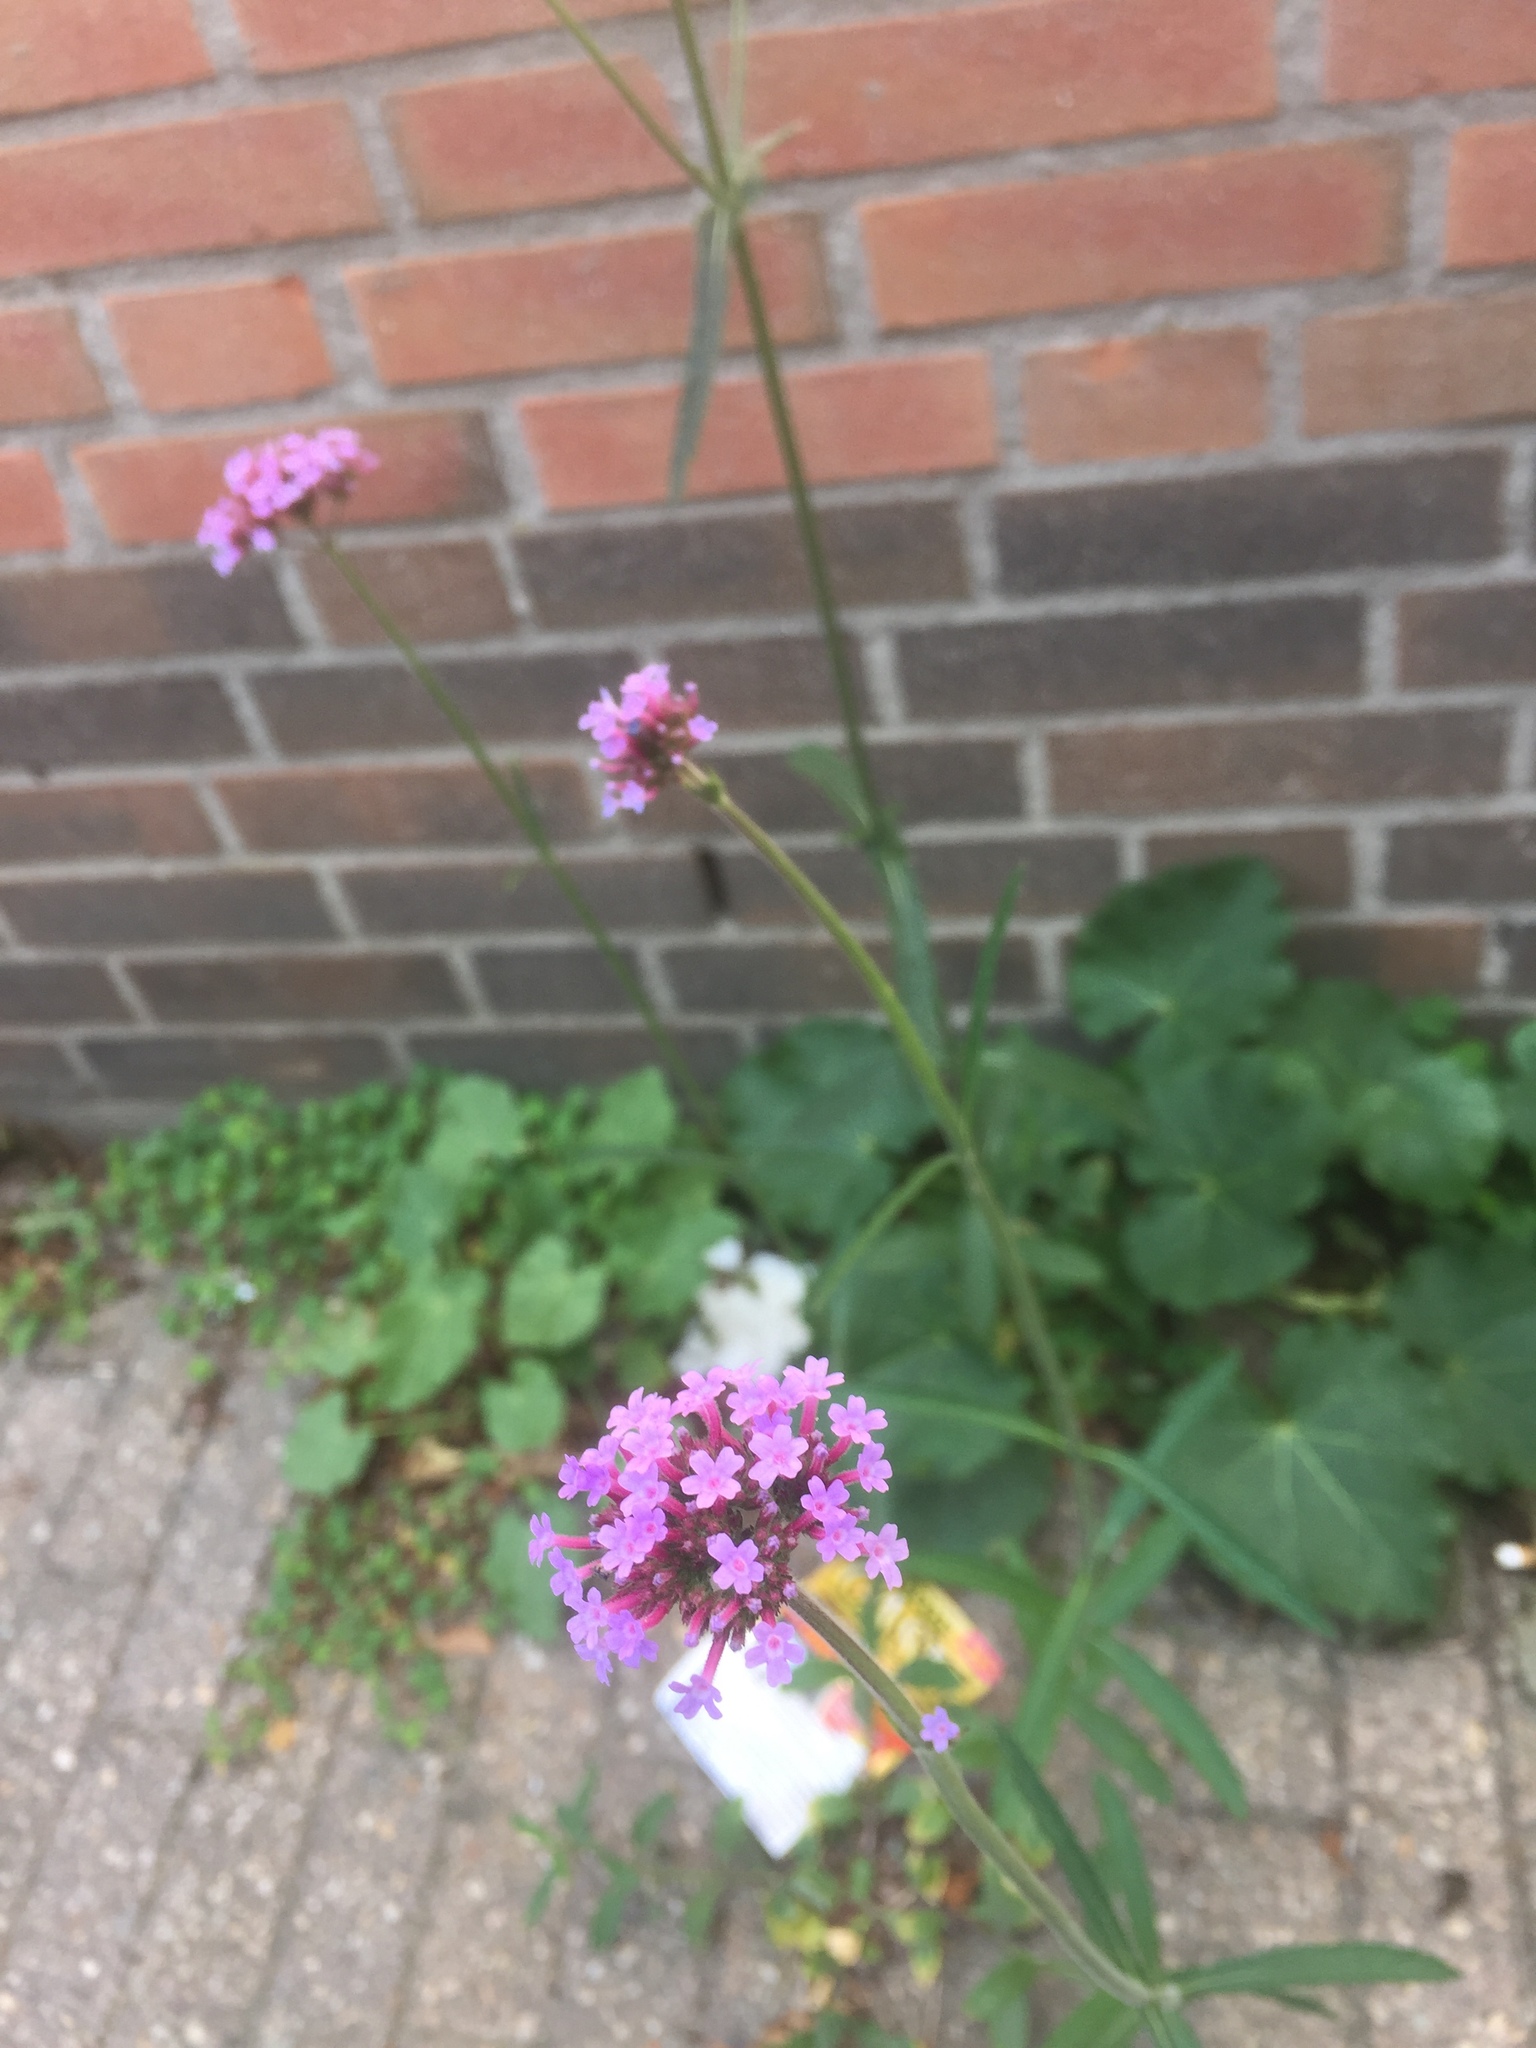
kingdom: Plantae
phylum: Tracheophyta
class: Magnoliopsida
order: Lamiales
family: Verbenaceae
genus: Verbena
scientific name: Verbena bonariensis
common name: Purpletop vervain
